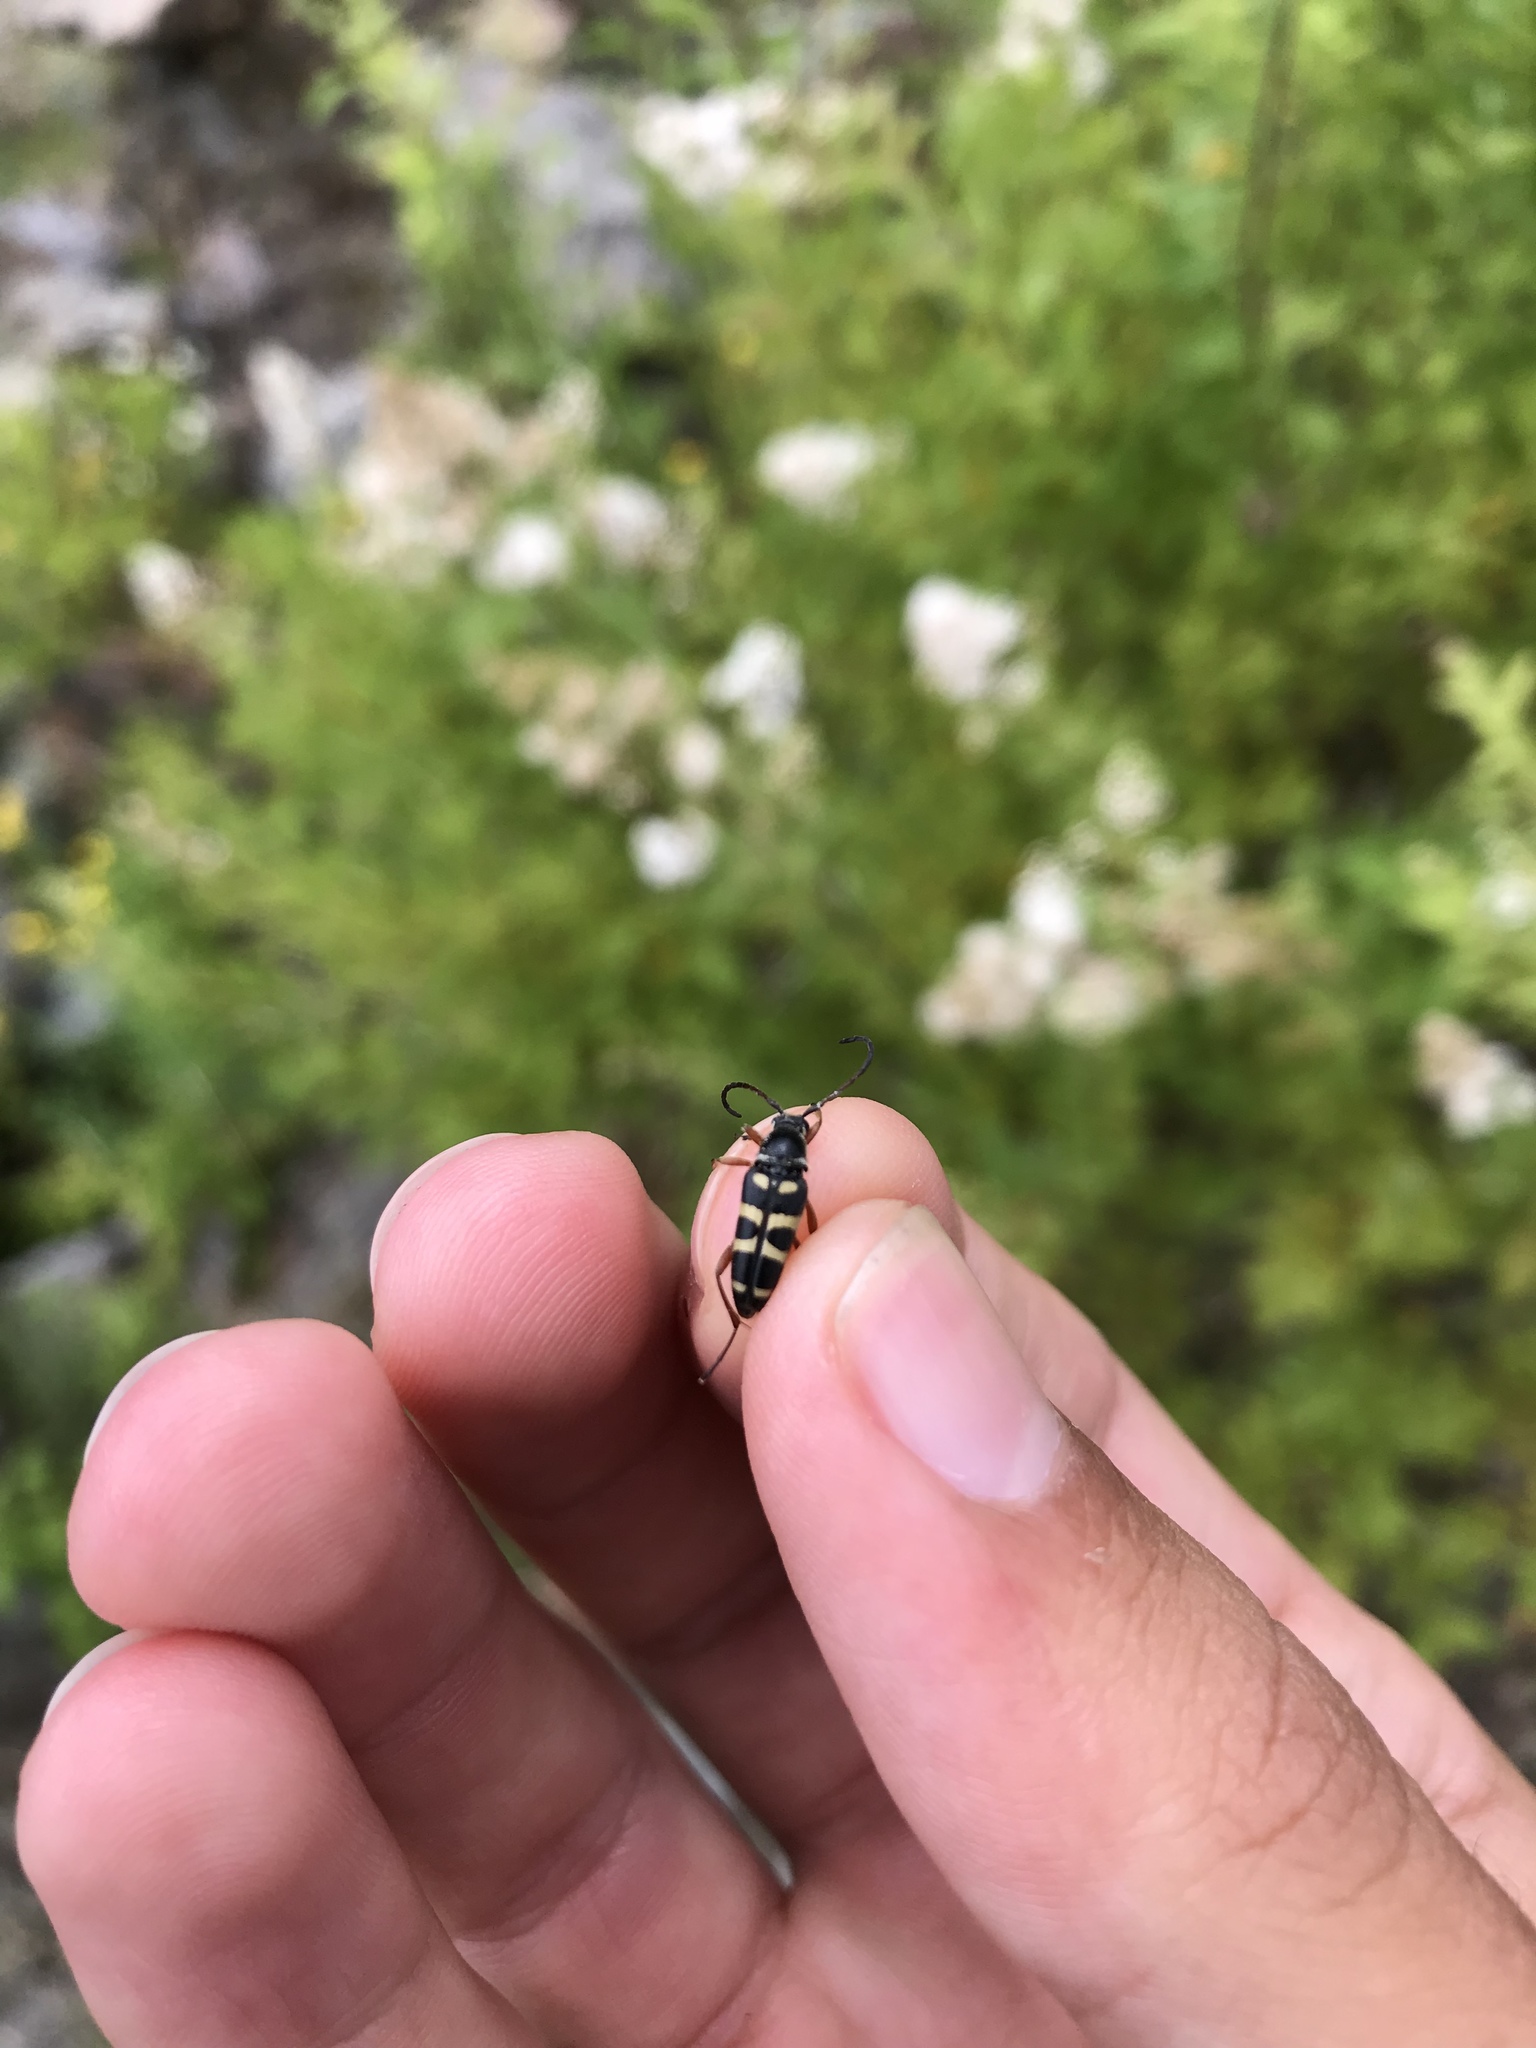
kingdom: Animalia
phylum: Arthropoda
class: Insecta
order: Coleoptera
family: Cerambycidae
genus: Typocerus
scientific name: Typocerus sparsus
